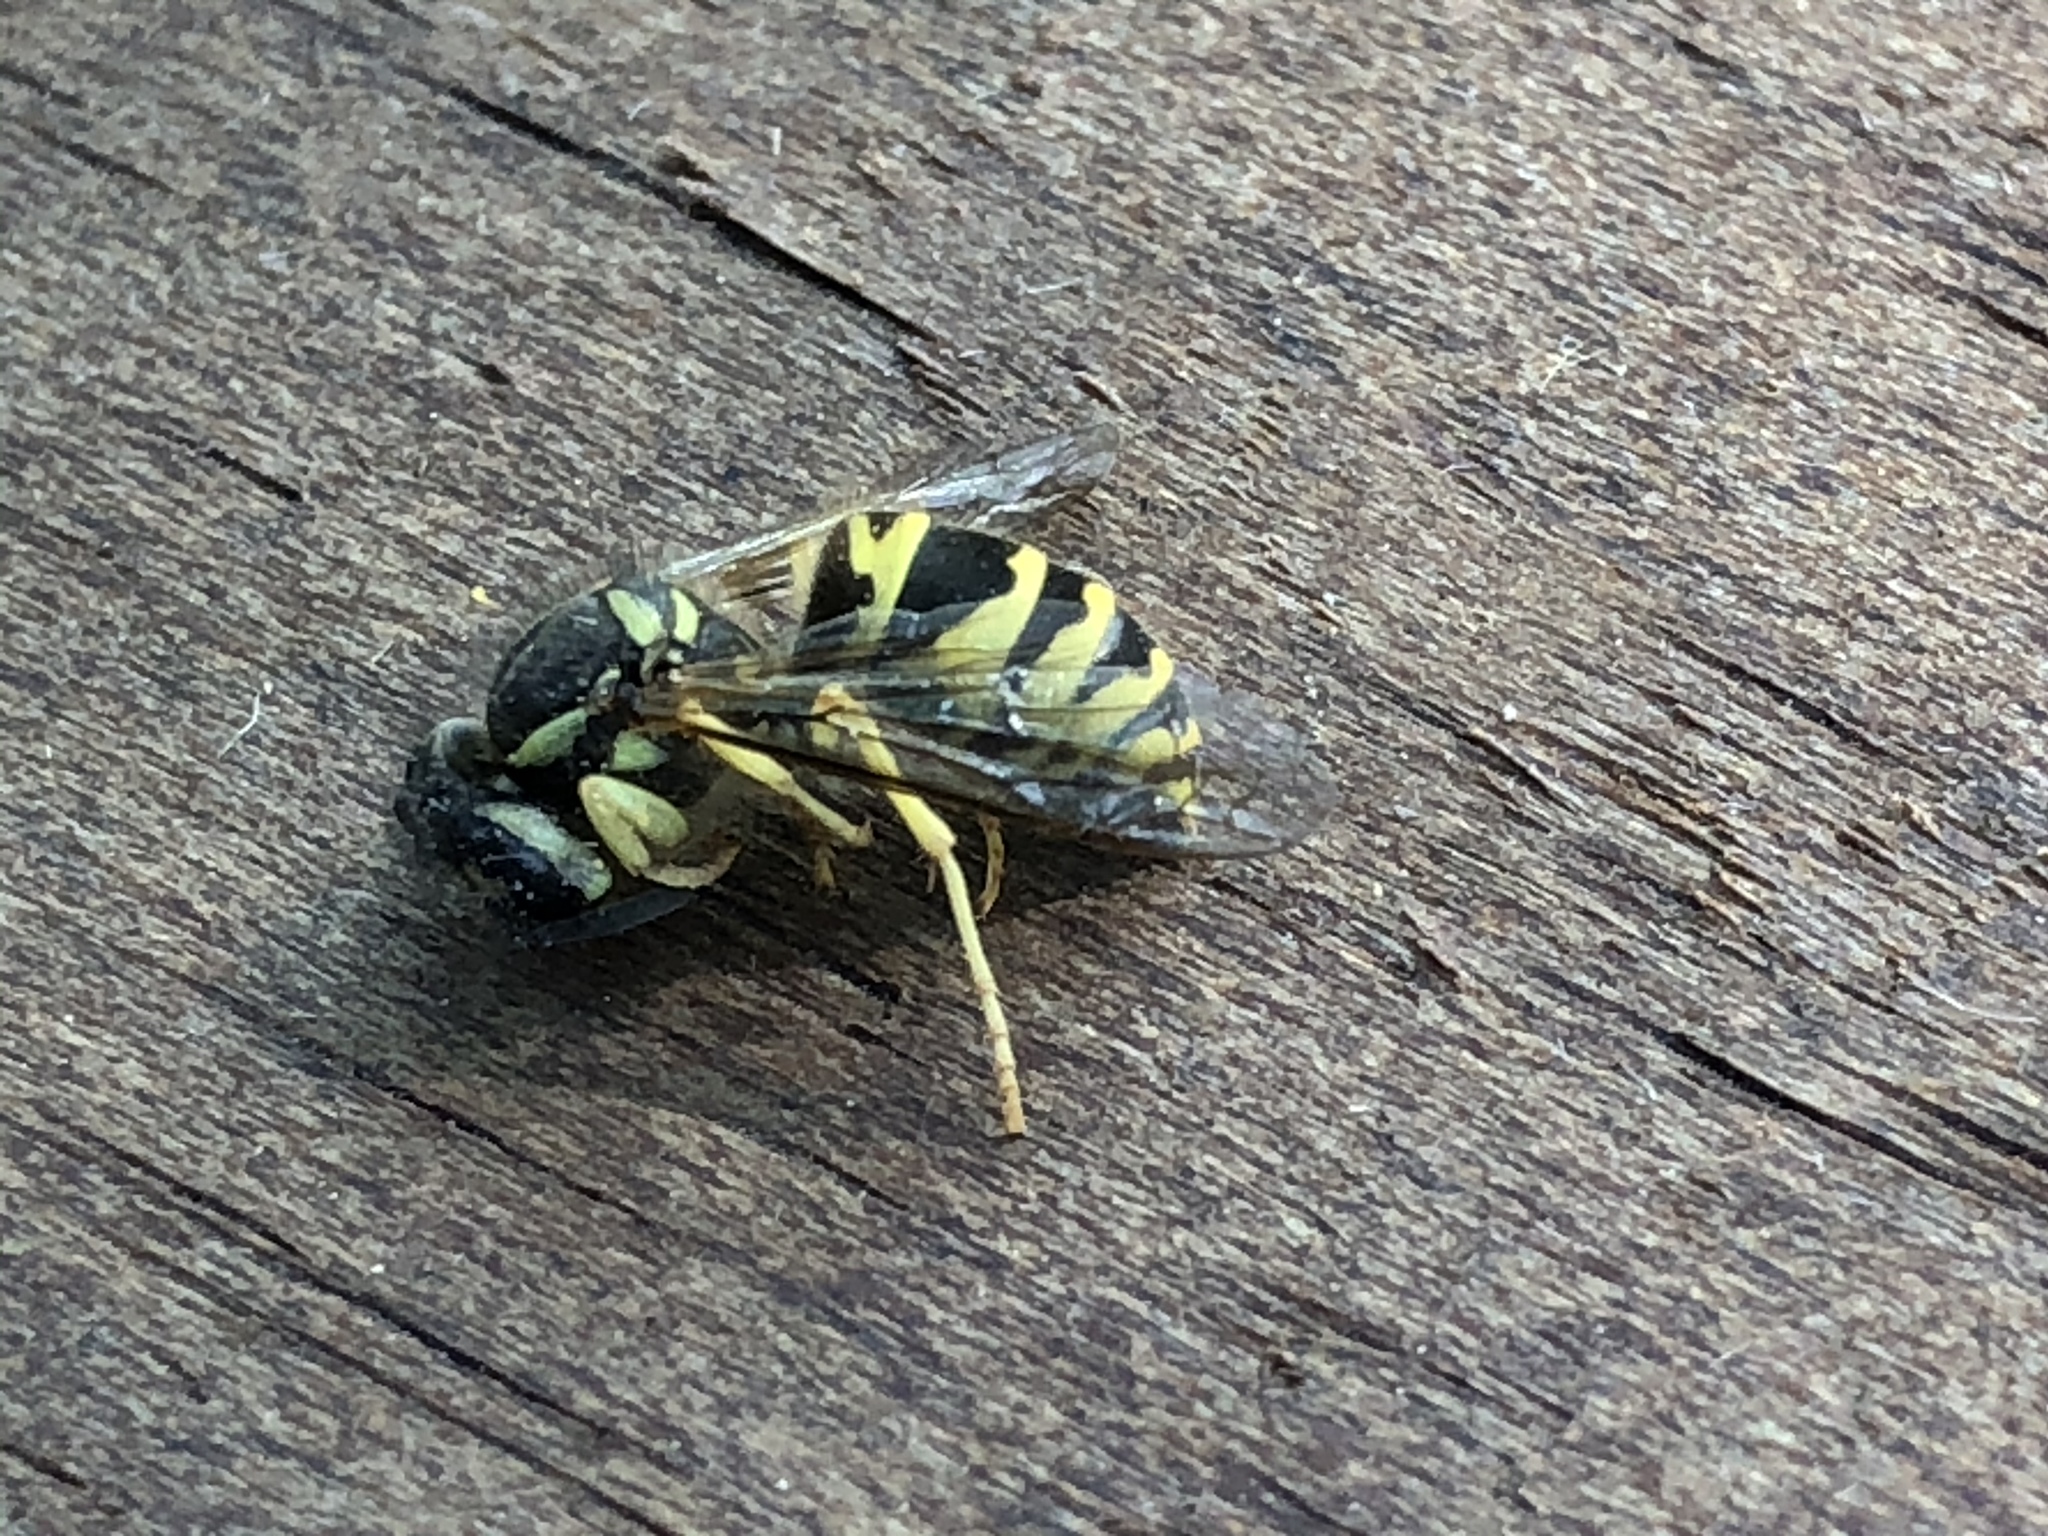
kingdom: Animalia
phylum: Arthropoda
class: Insecta
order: Hymenoptera
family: Vespidae
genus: Vespula
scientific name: Vespula maculifrons
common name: Eastern yellowjacket
